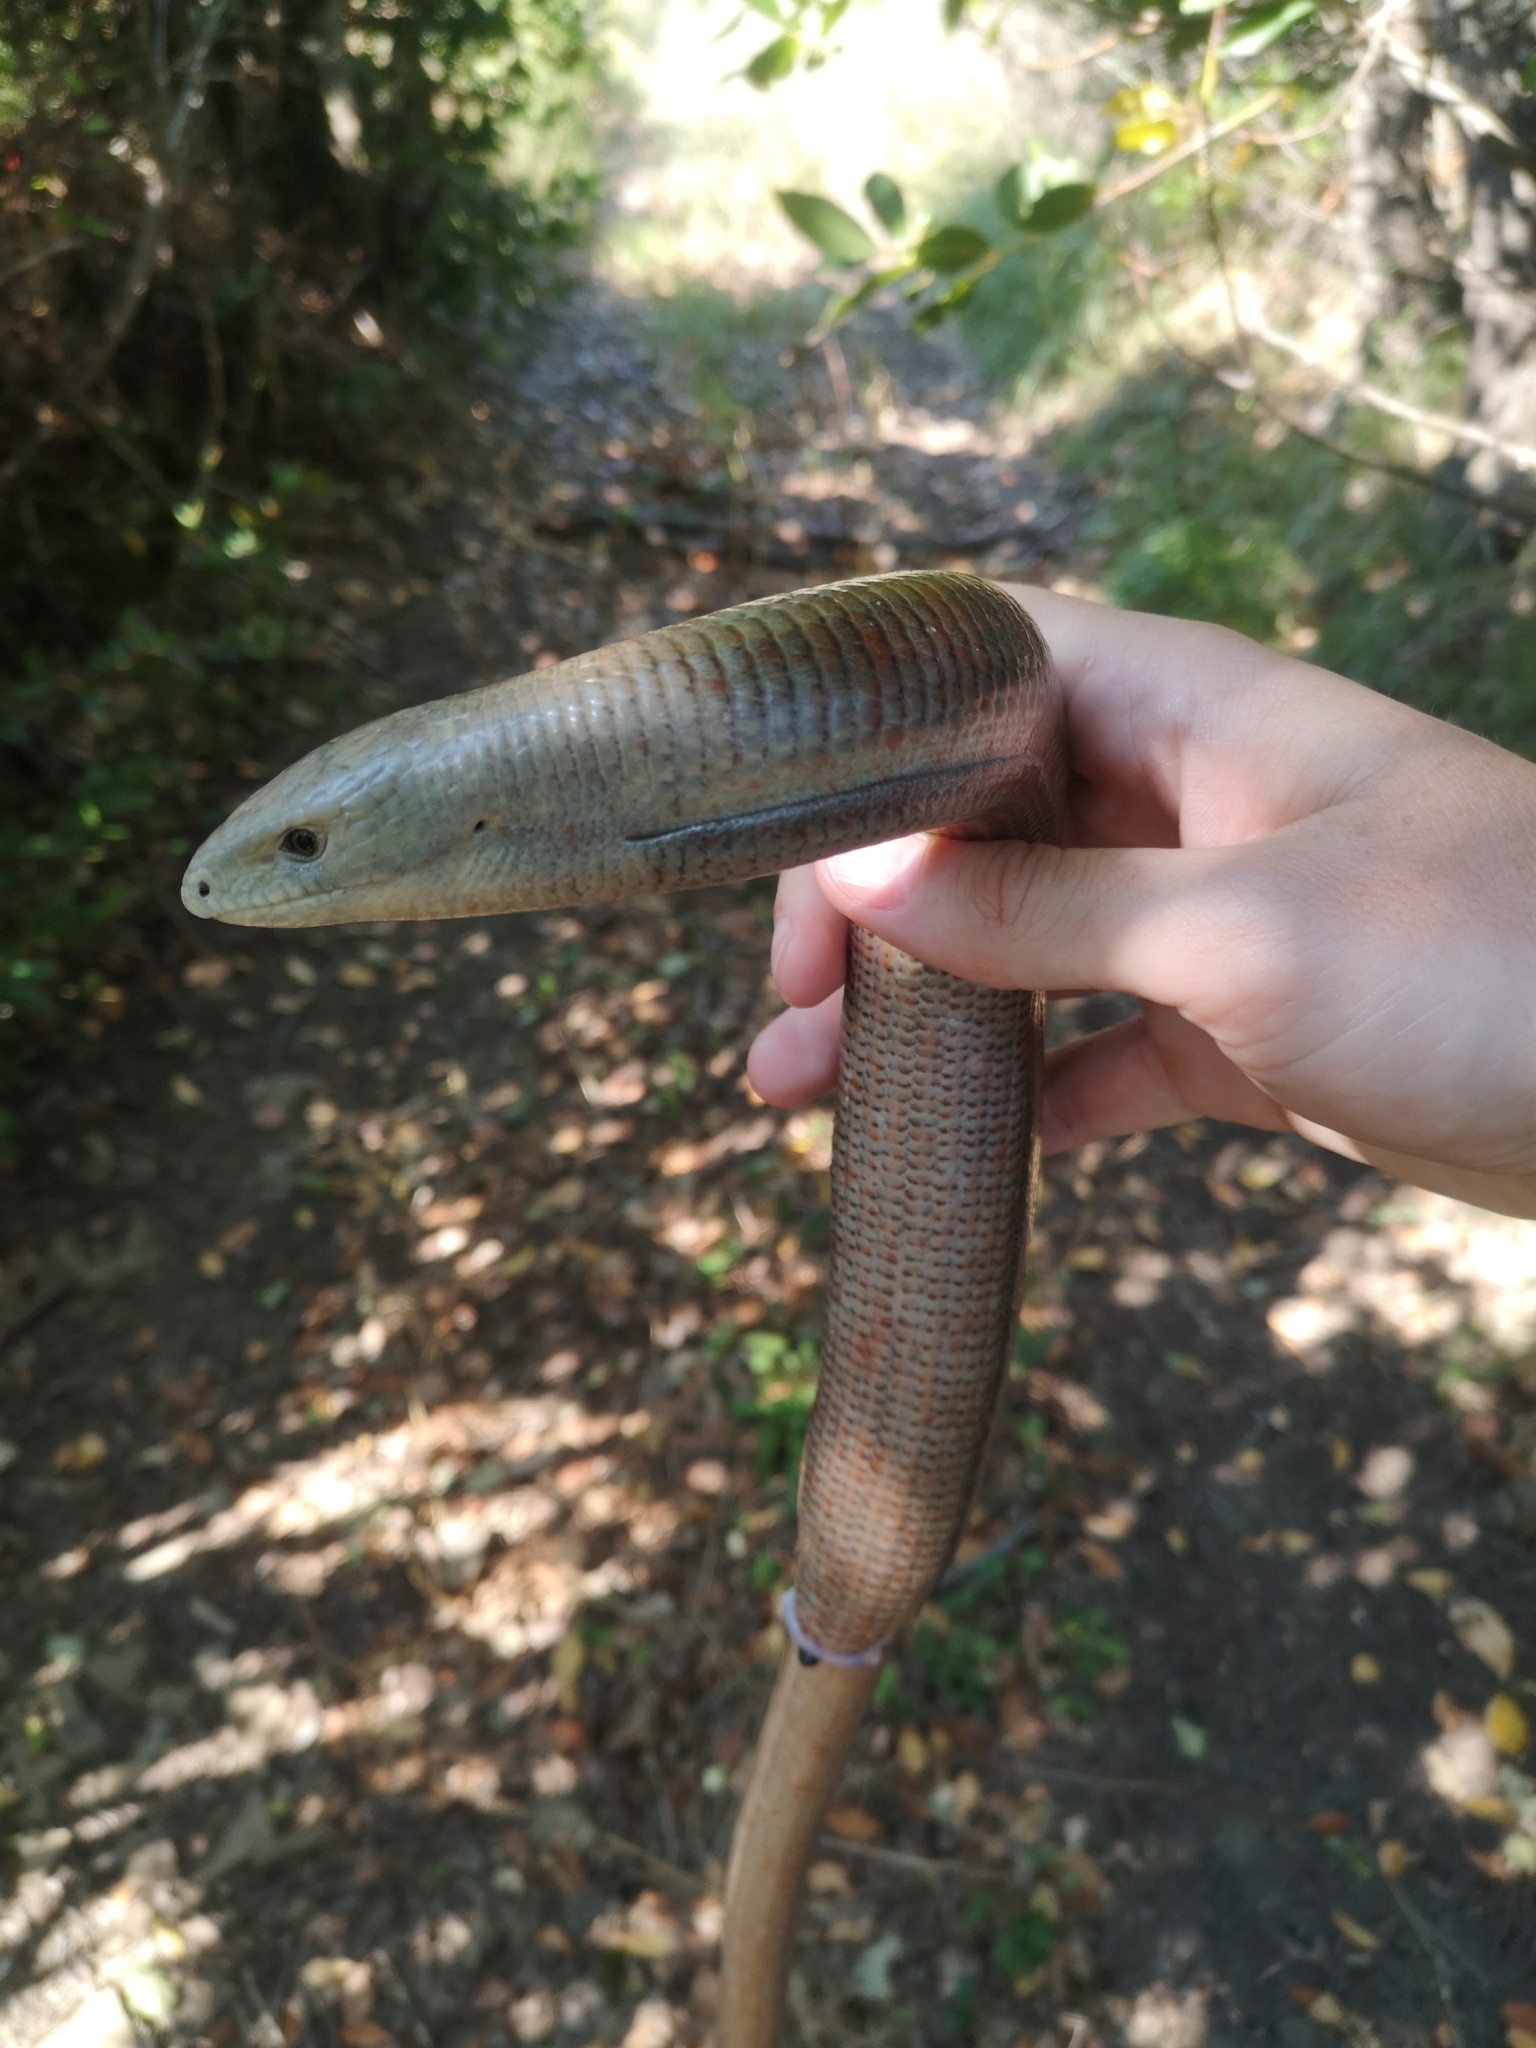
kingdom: Animalia
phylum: Chordata
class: Squamata
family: Anguidae
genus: Pseudopus
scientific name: Pseudopus apodus
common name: European glass lizard
